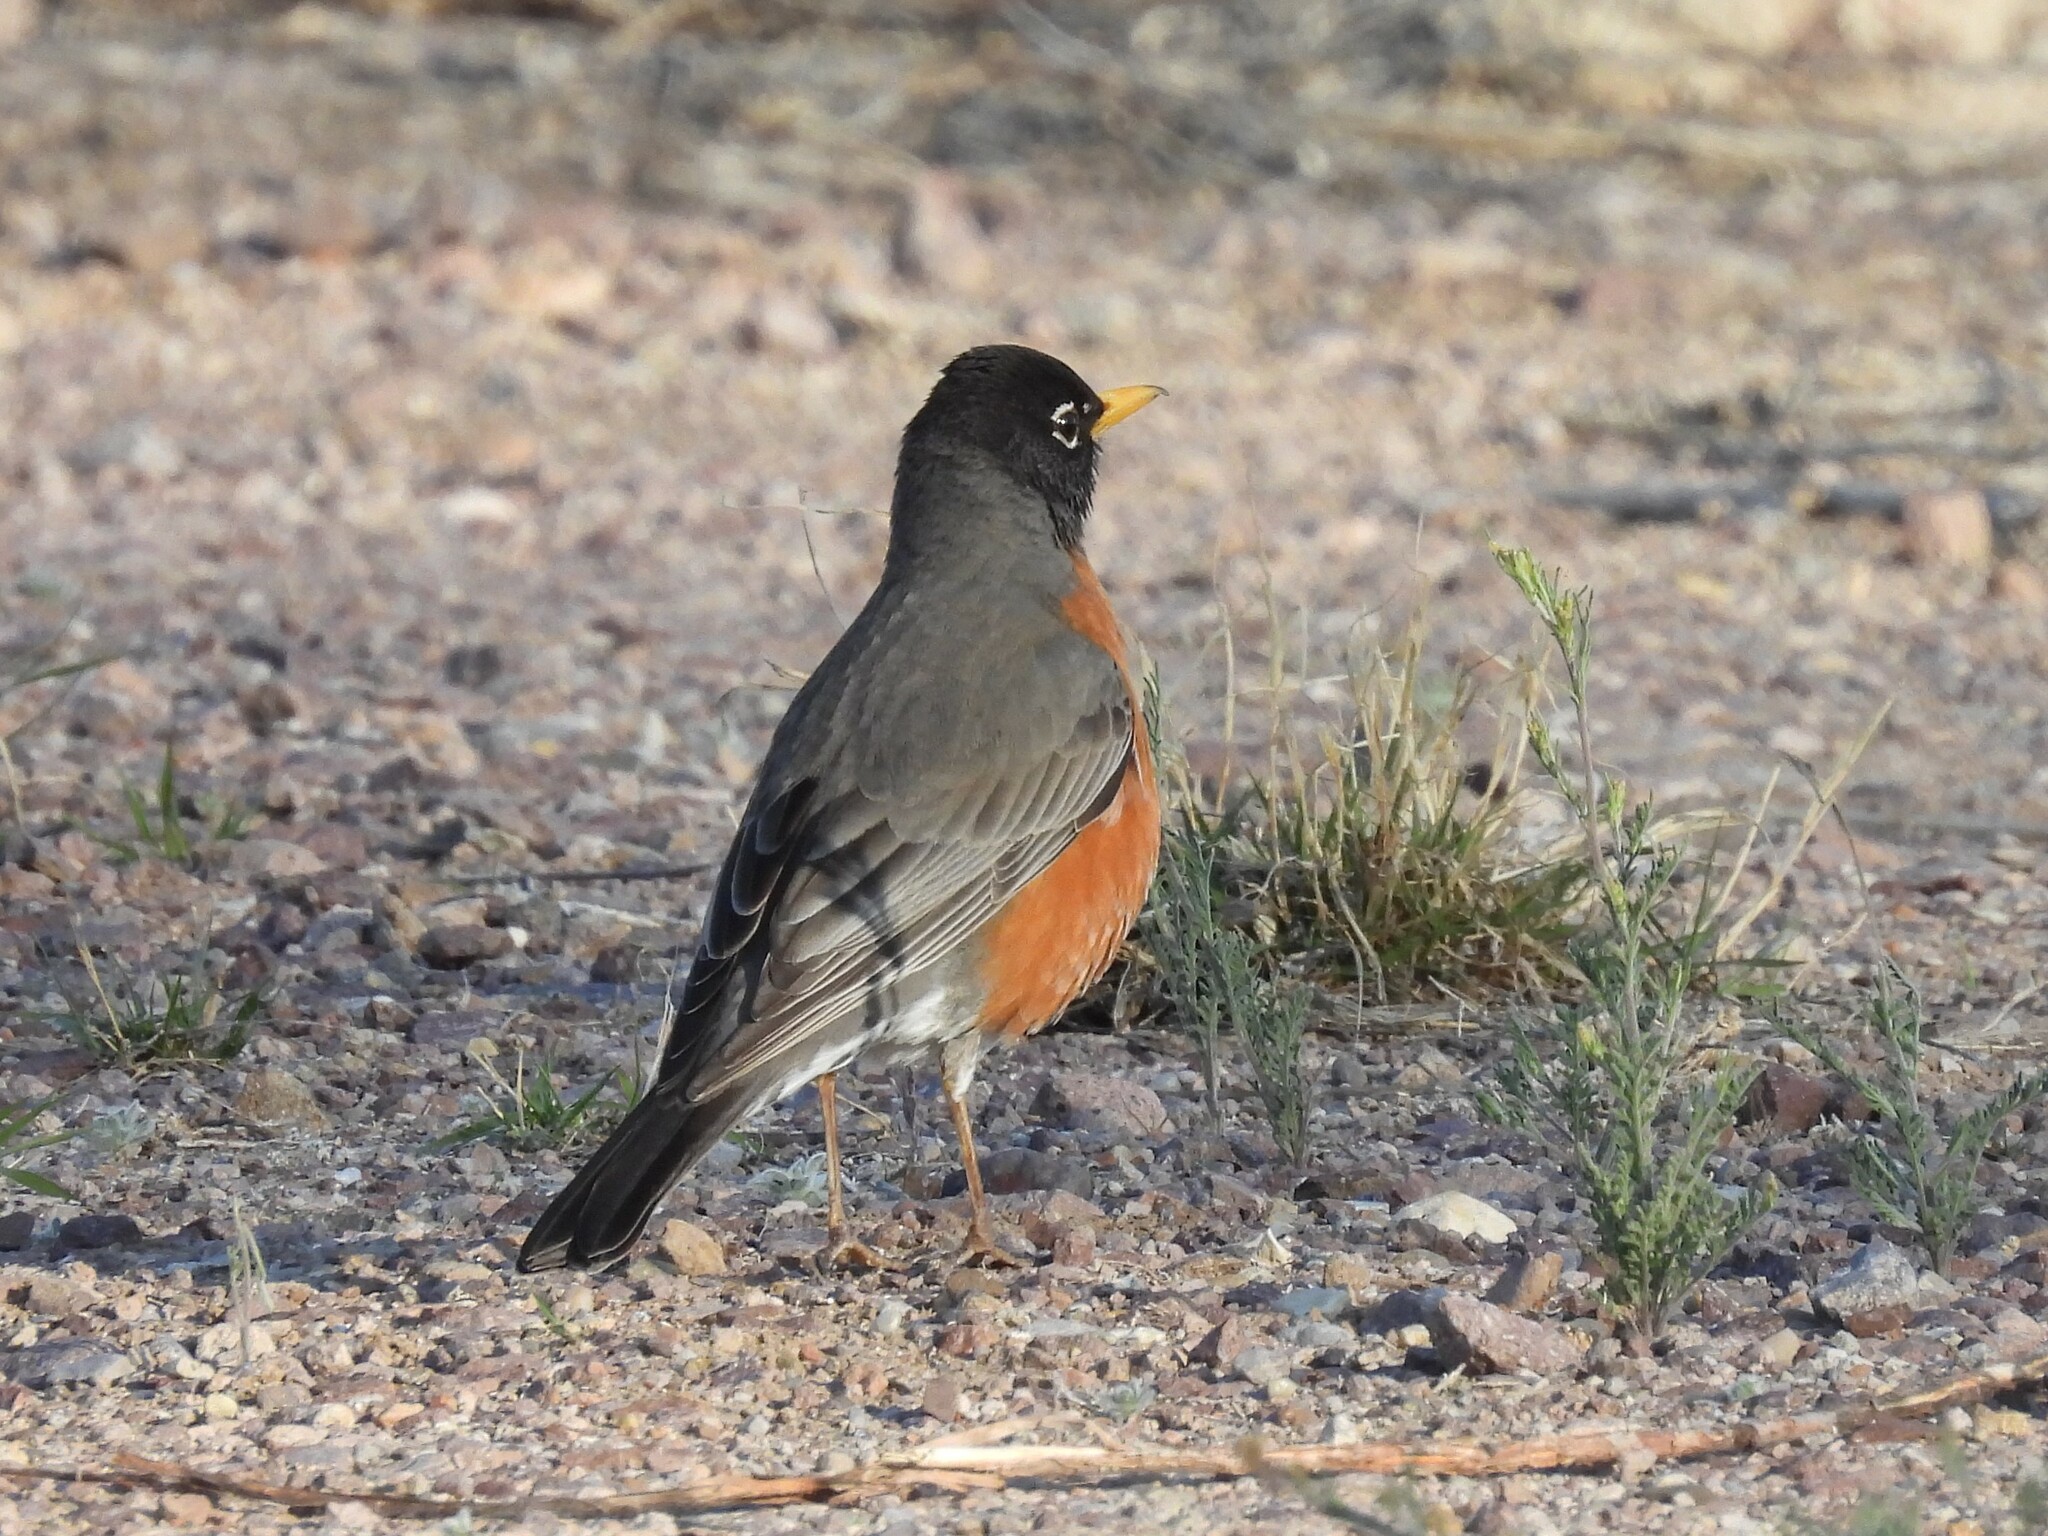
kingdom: Animalia
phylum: Chordata
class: Aves
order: Passeriformes
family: Turdidae
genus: Turdus
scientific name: Turdus migratorius
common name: American robin
